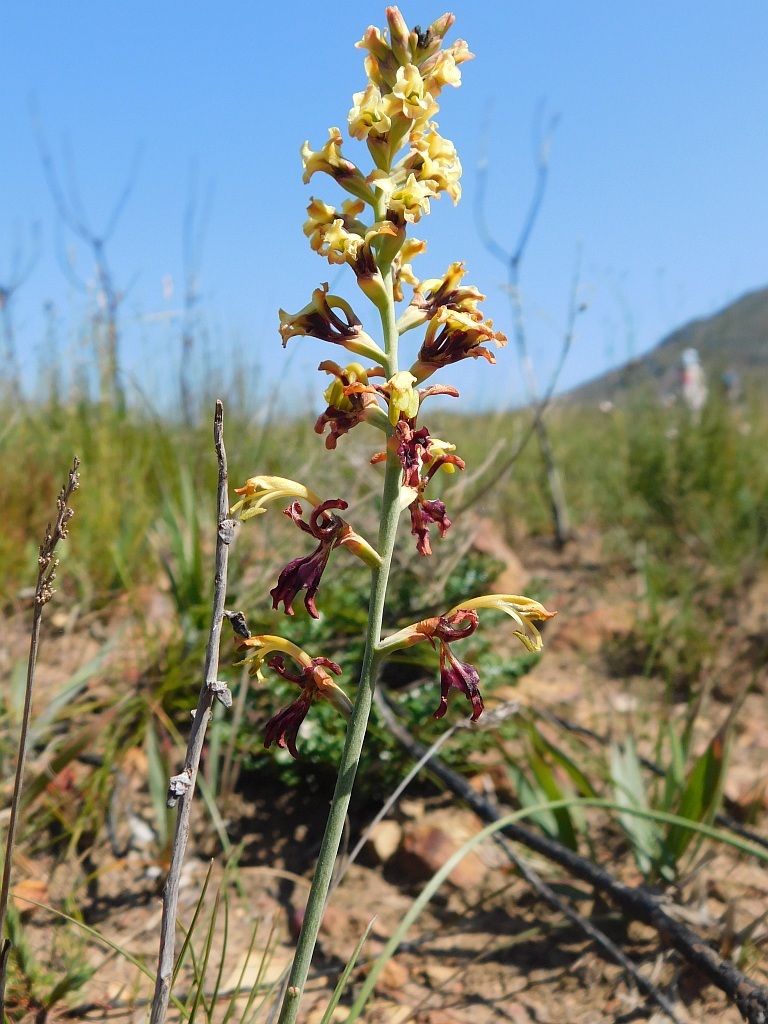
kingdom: Plantae
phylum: Tracheophyta
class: Liliopsida
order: Asparagales
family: Iridaceae
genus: Tritoniopsis
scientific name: Tritoniopsis parviflora
